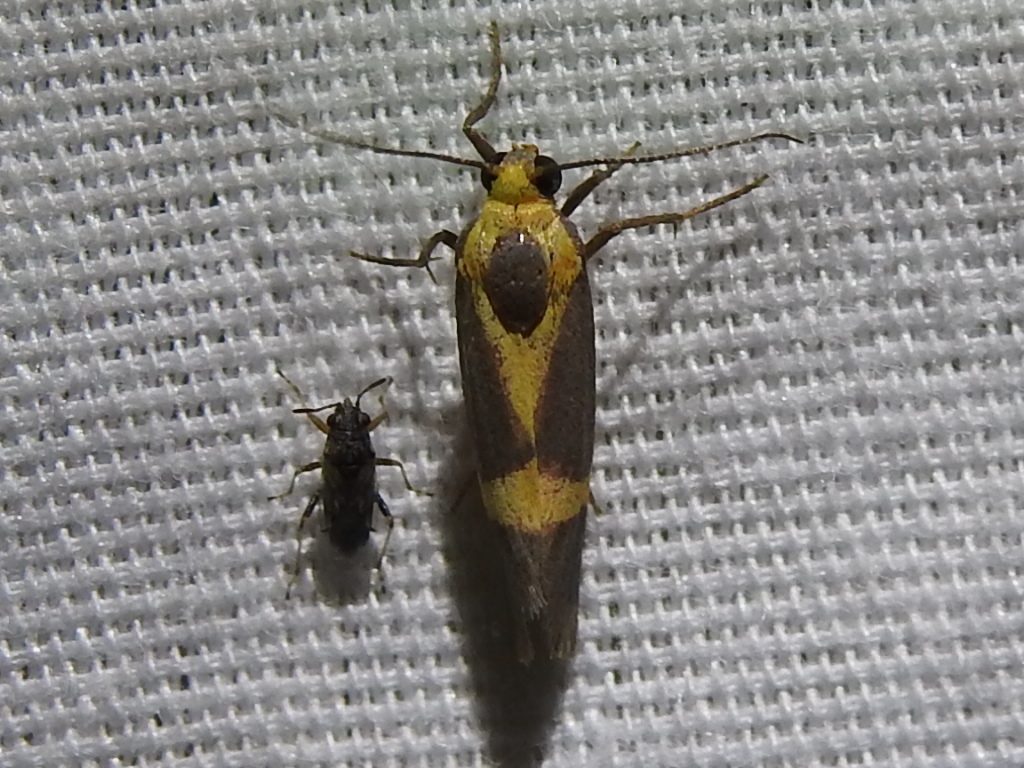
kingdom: Animalia
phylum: Arthropoda
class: Insecta
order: Lepidoptera
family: Erebidae
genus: Cisthene
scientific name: Cisthene tenuifascia
